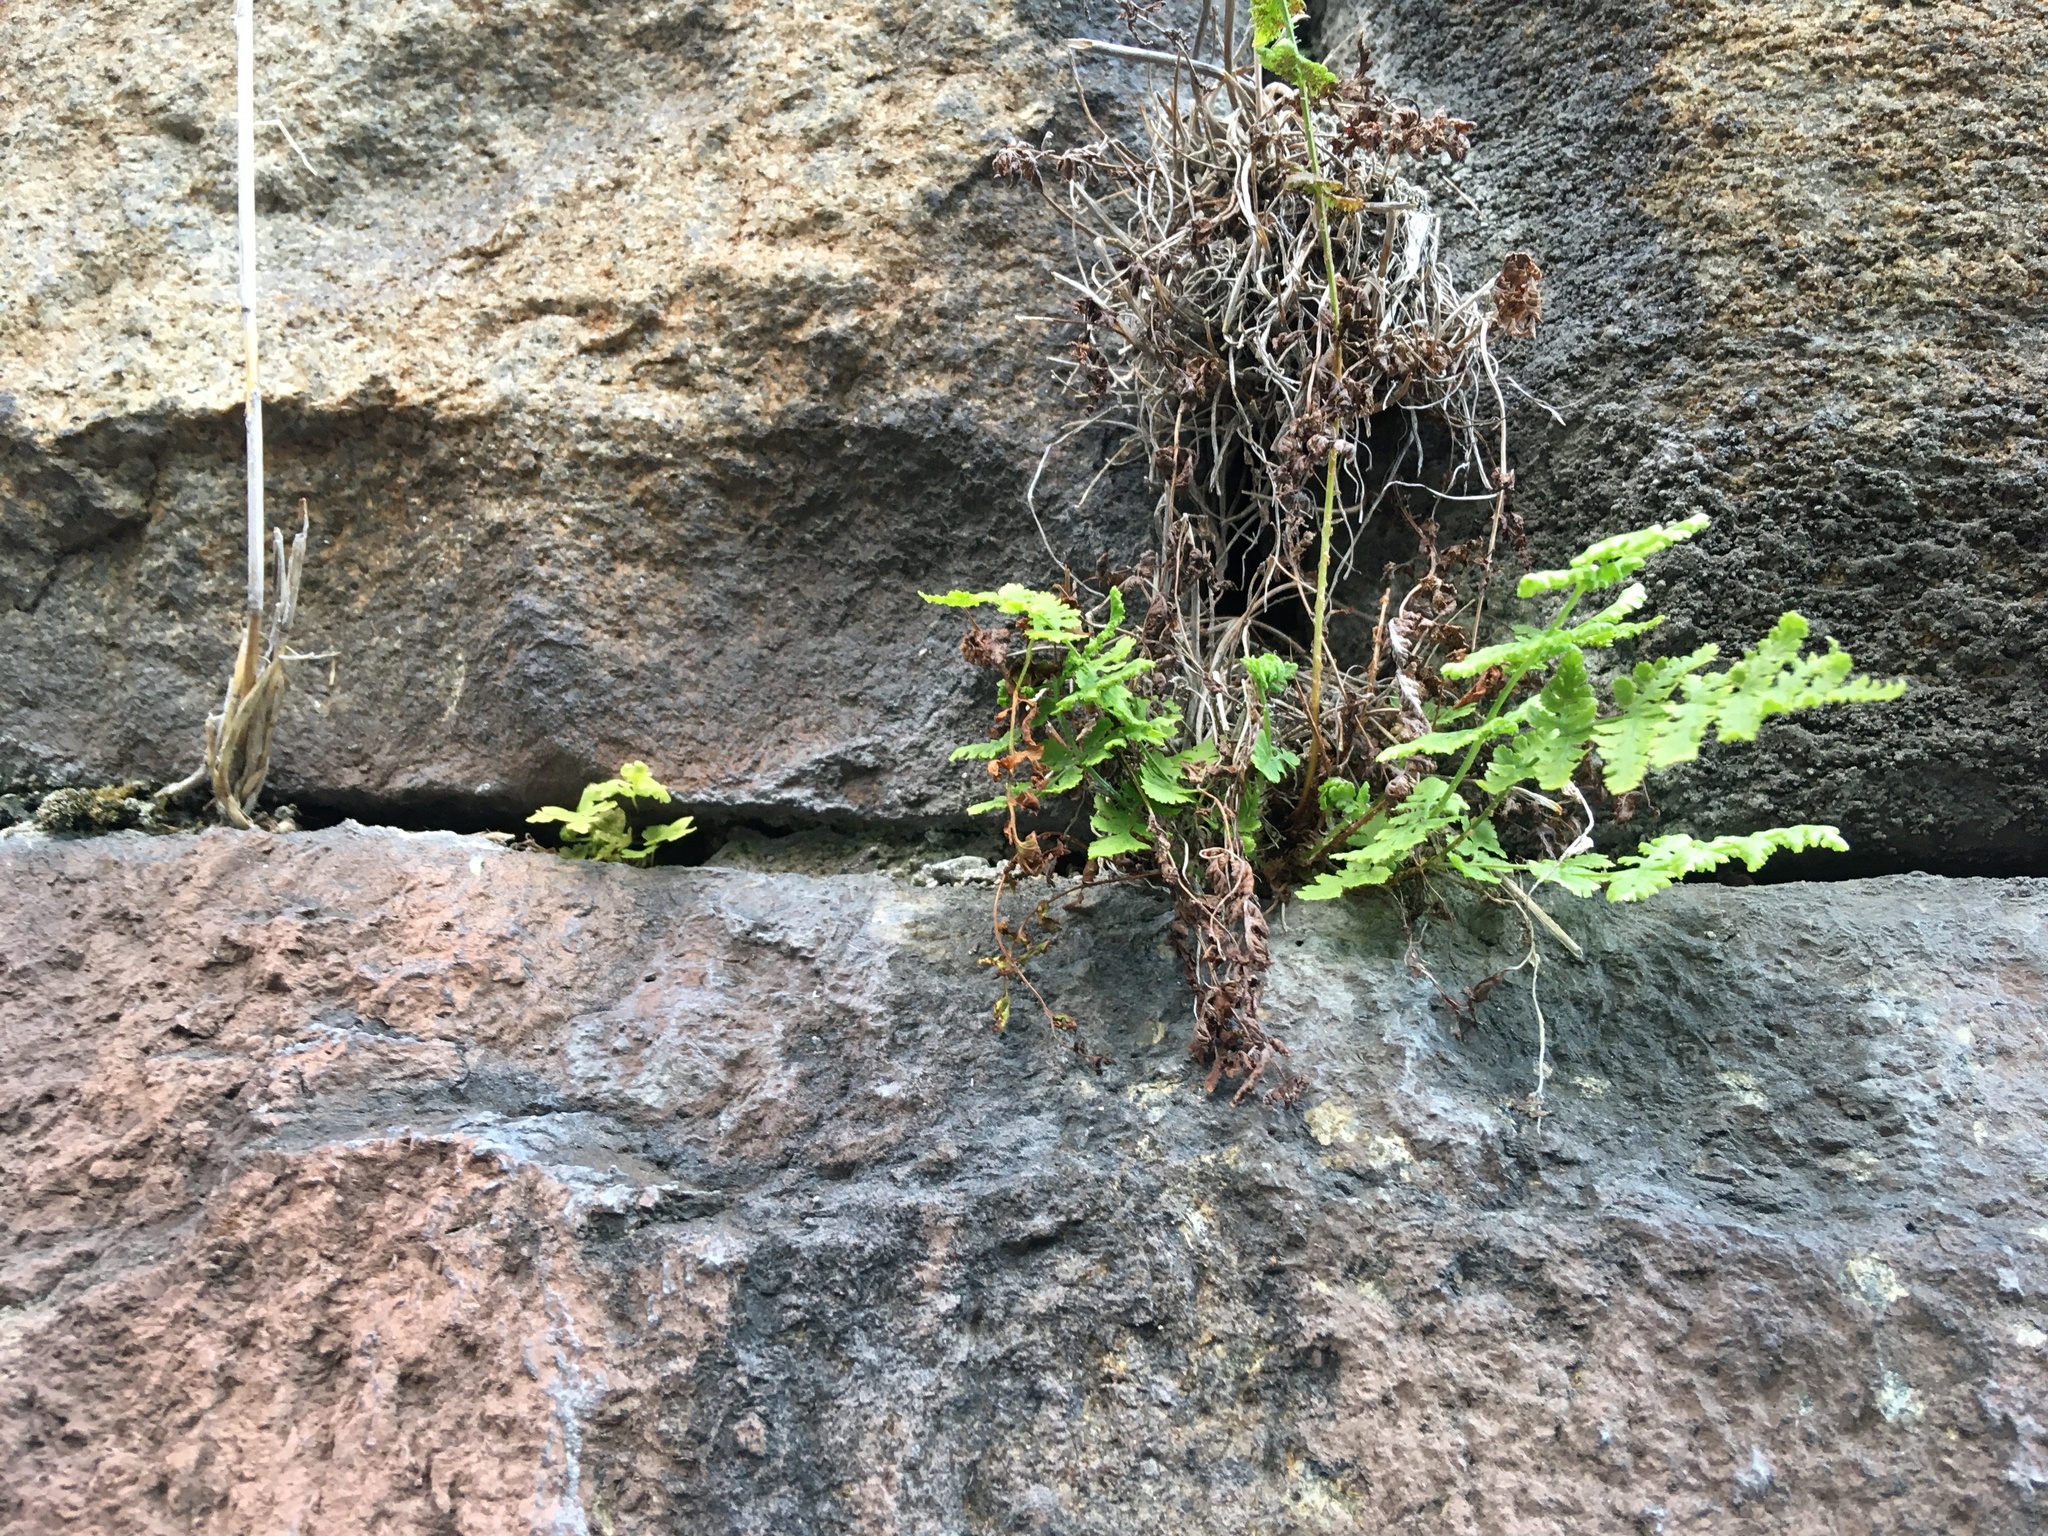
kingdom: Plantae
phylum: Tracheophyta
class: Polypodiopsida
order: Polypodiales
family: Woodsiaceae
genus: Physematium
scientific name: Physematium obtusum
